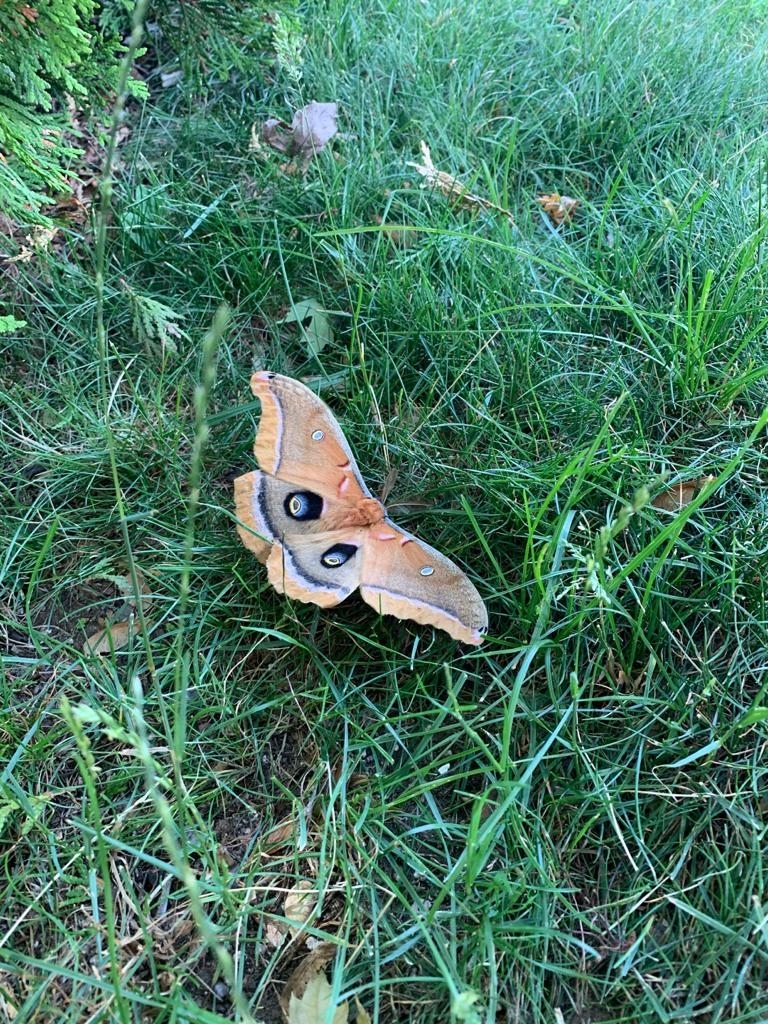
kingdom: Animalia
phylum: Arthropoda
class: Insecta
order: Lepidoptera
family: Saturniidae
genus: Antheraea
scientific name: Antheraea polyphemus
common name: Polyphemus moth
